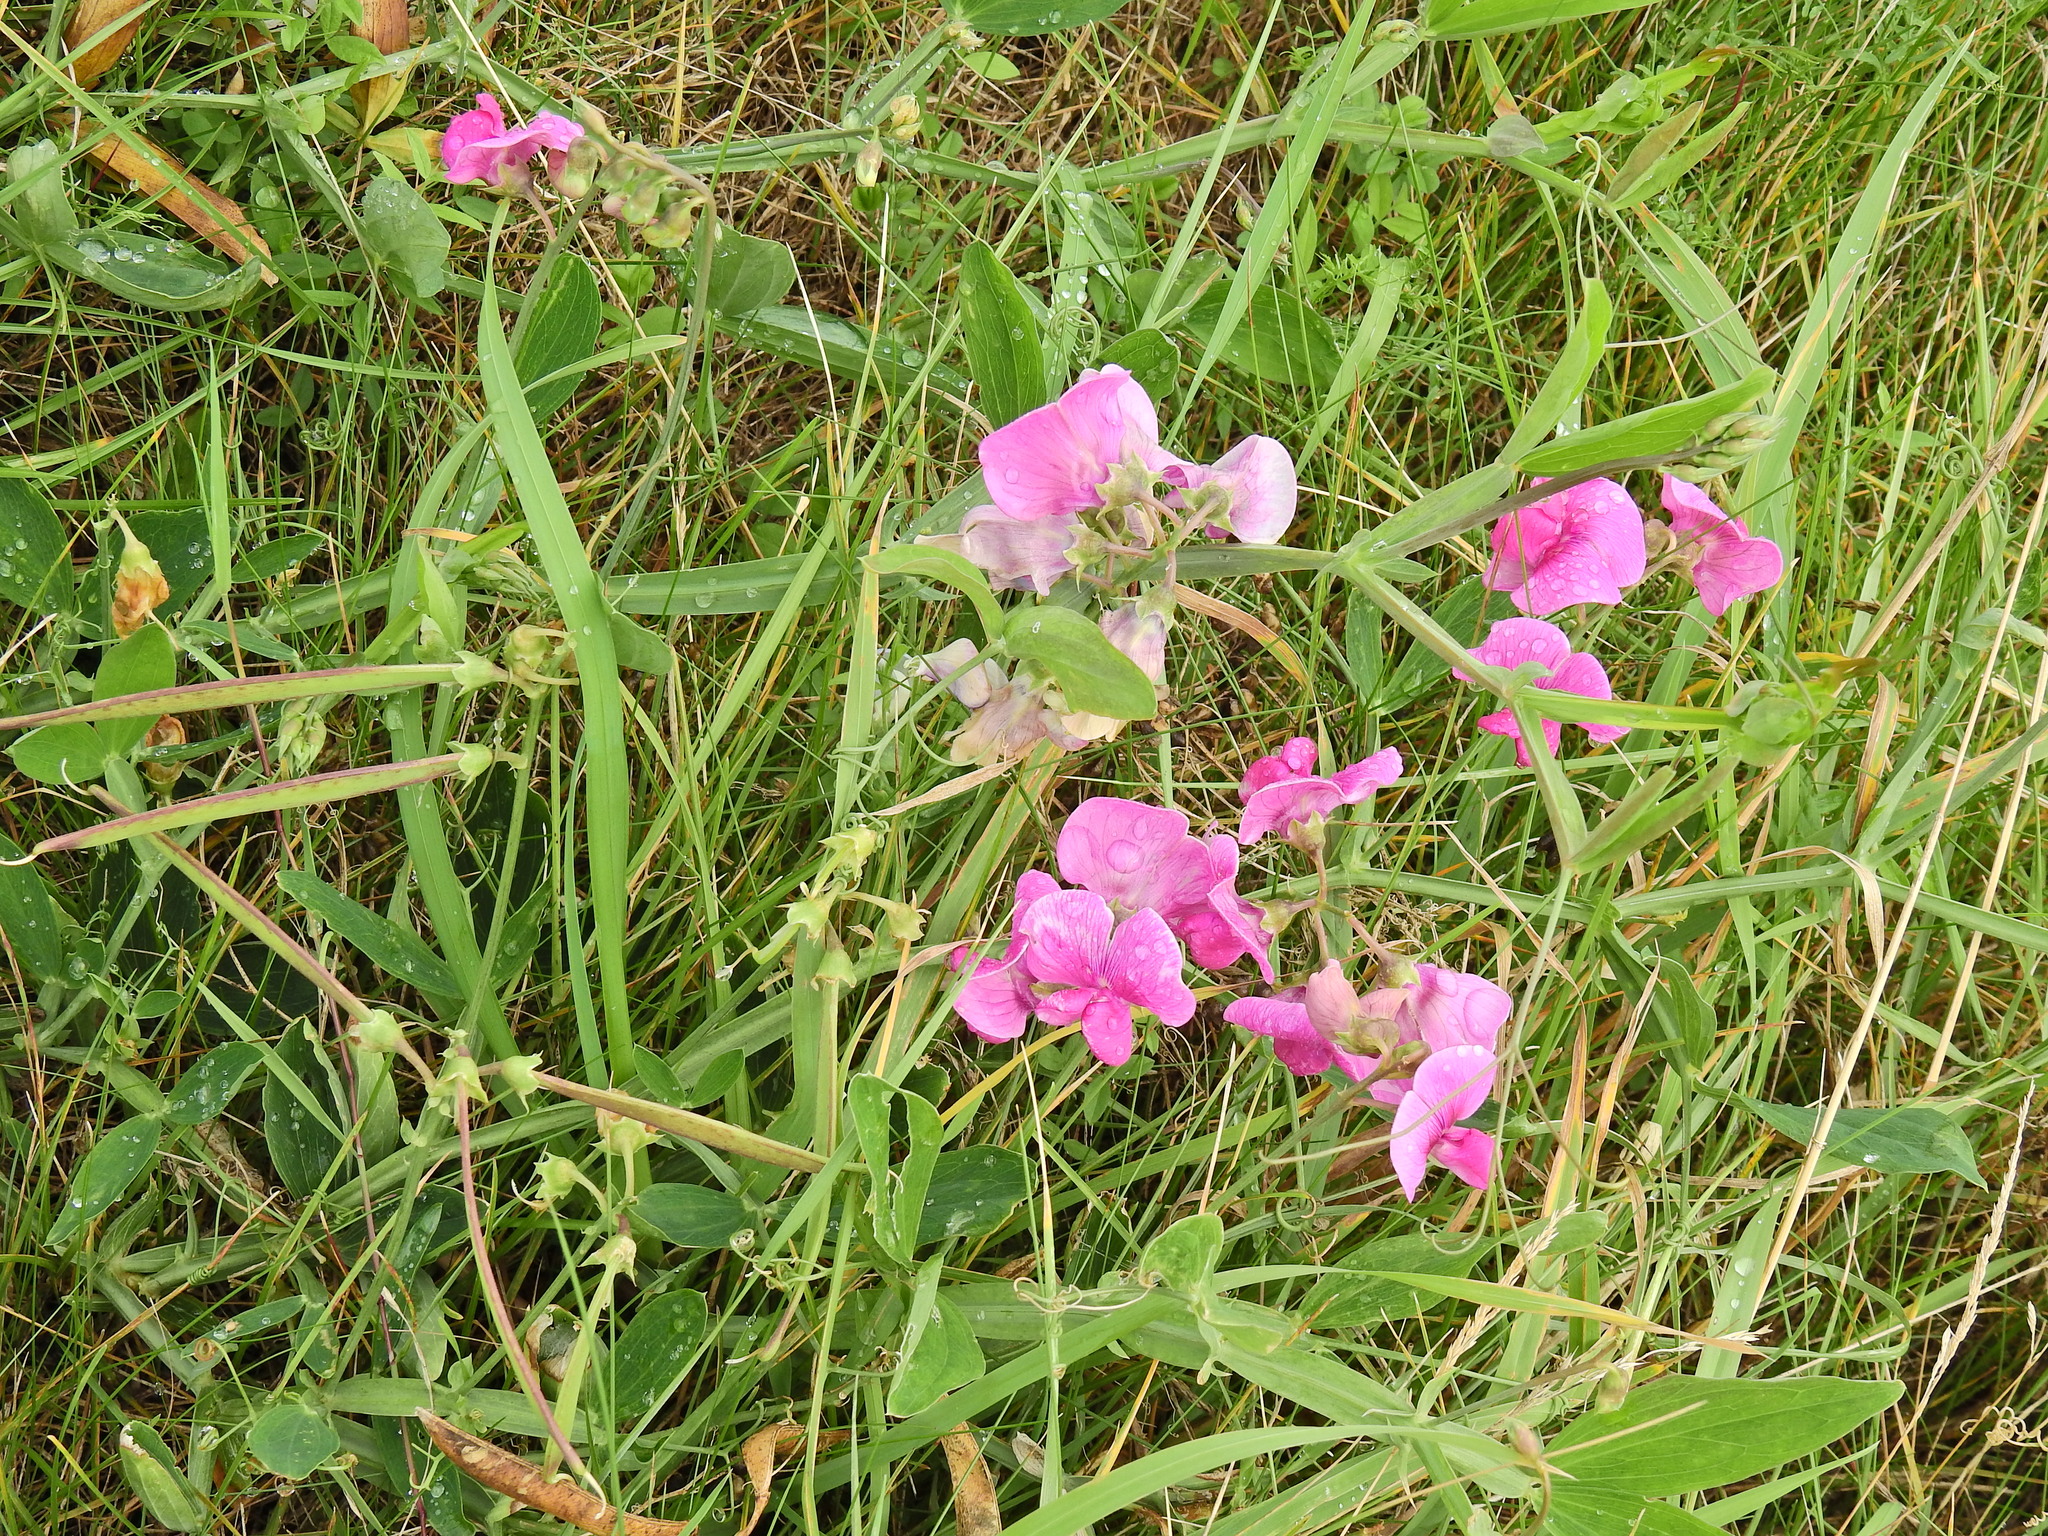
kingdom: Plantae
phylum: Tracheophyta
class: Magnoliopsida
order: Fabales
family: Fabaceae
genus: Lathyrus
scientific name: Lathyrus latifolius
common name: Perennial pea
